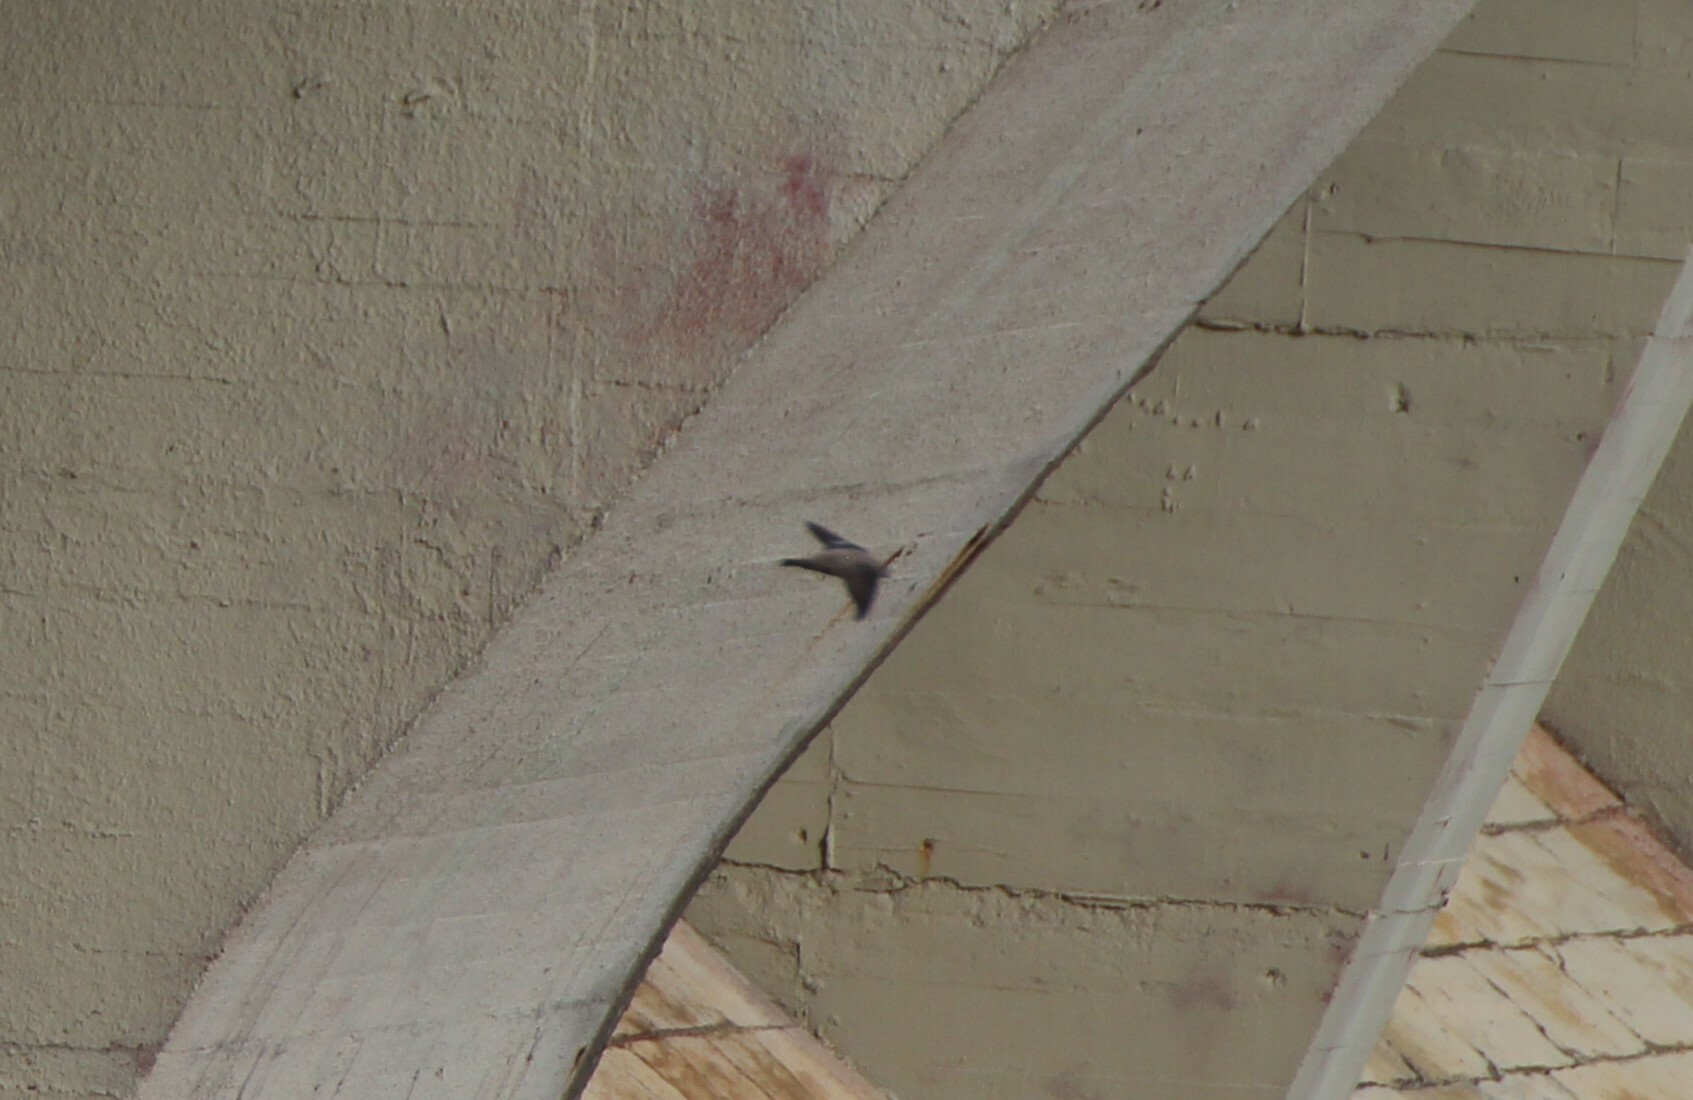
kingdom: Animalia
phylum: Chordata
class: Aves
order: Passeriformes
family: Hirundinidae
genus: Ptyonoprogne
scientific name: Ptyonoprogne rupestris
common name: Eurasian crag martin
